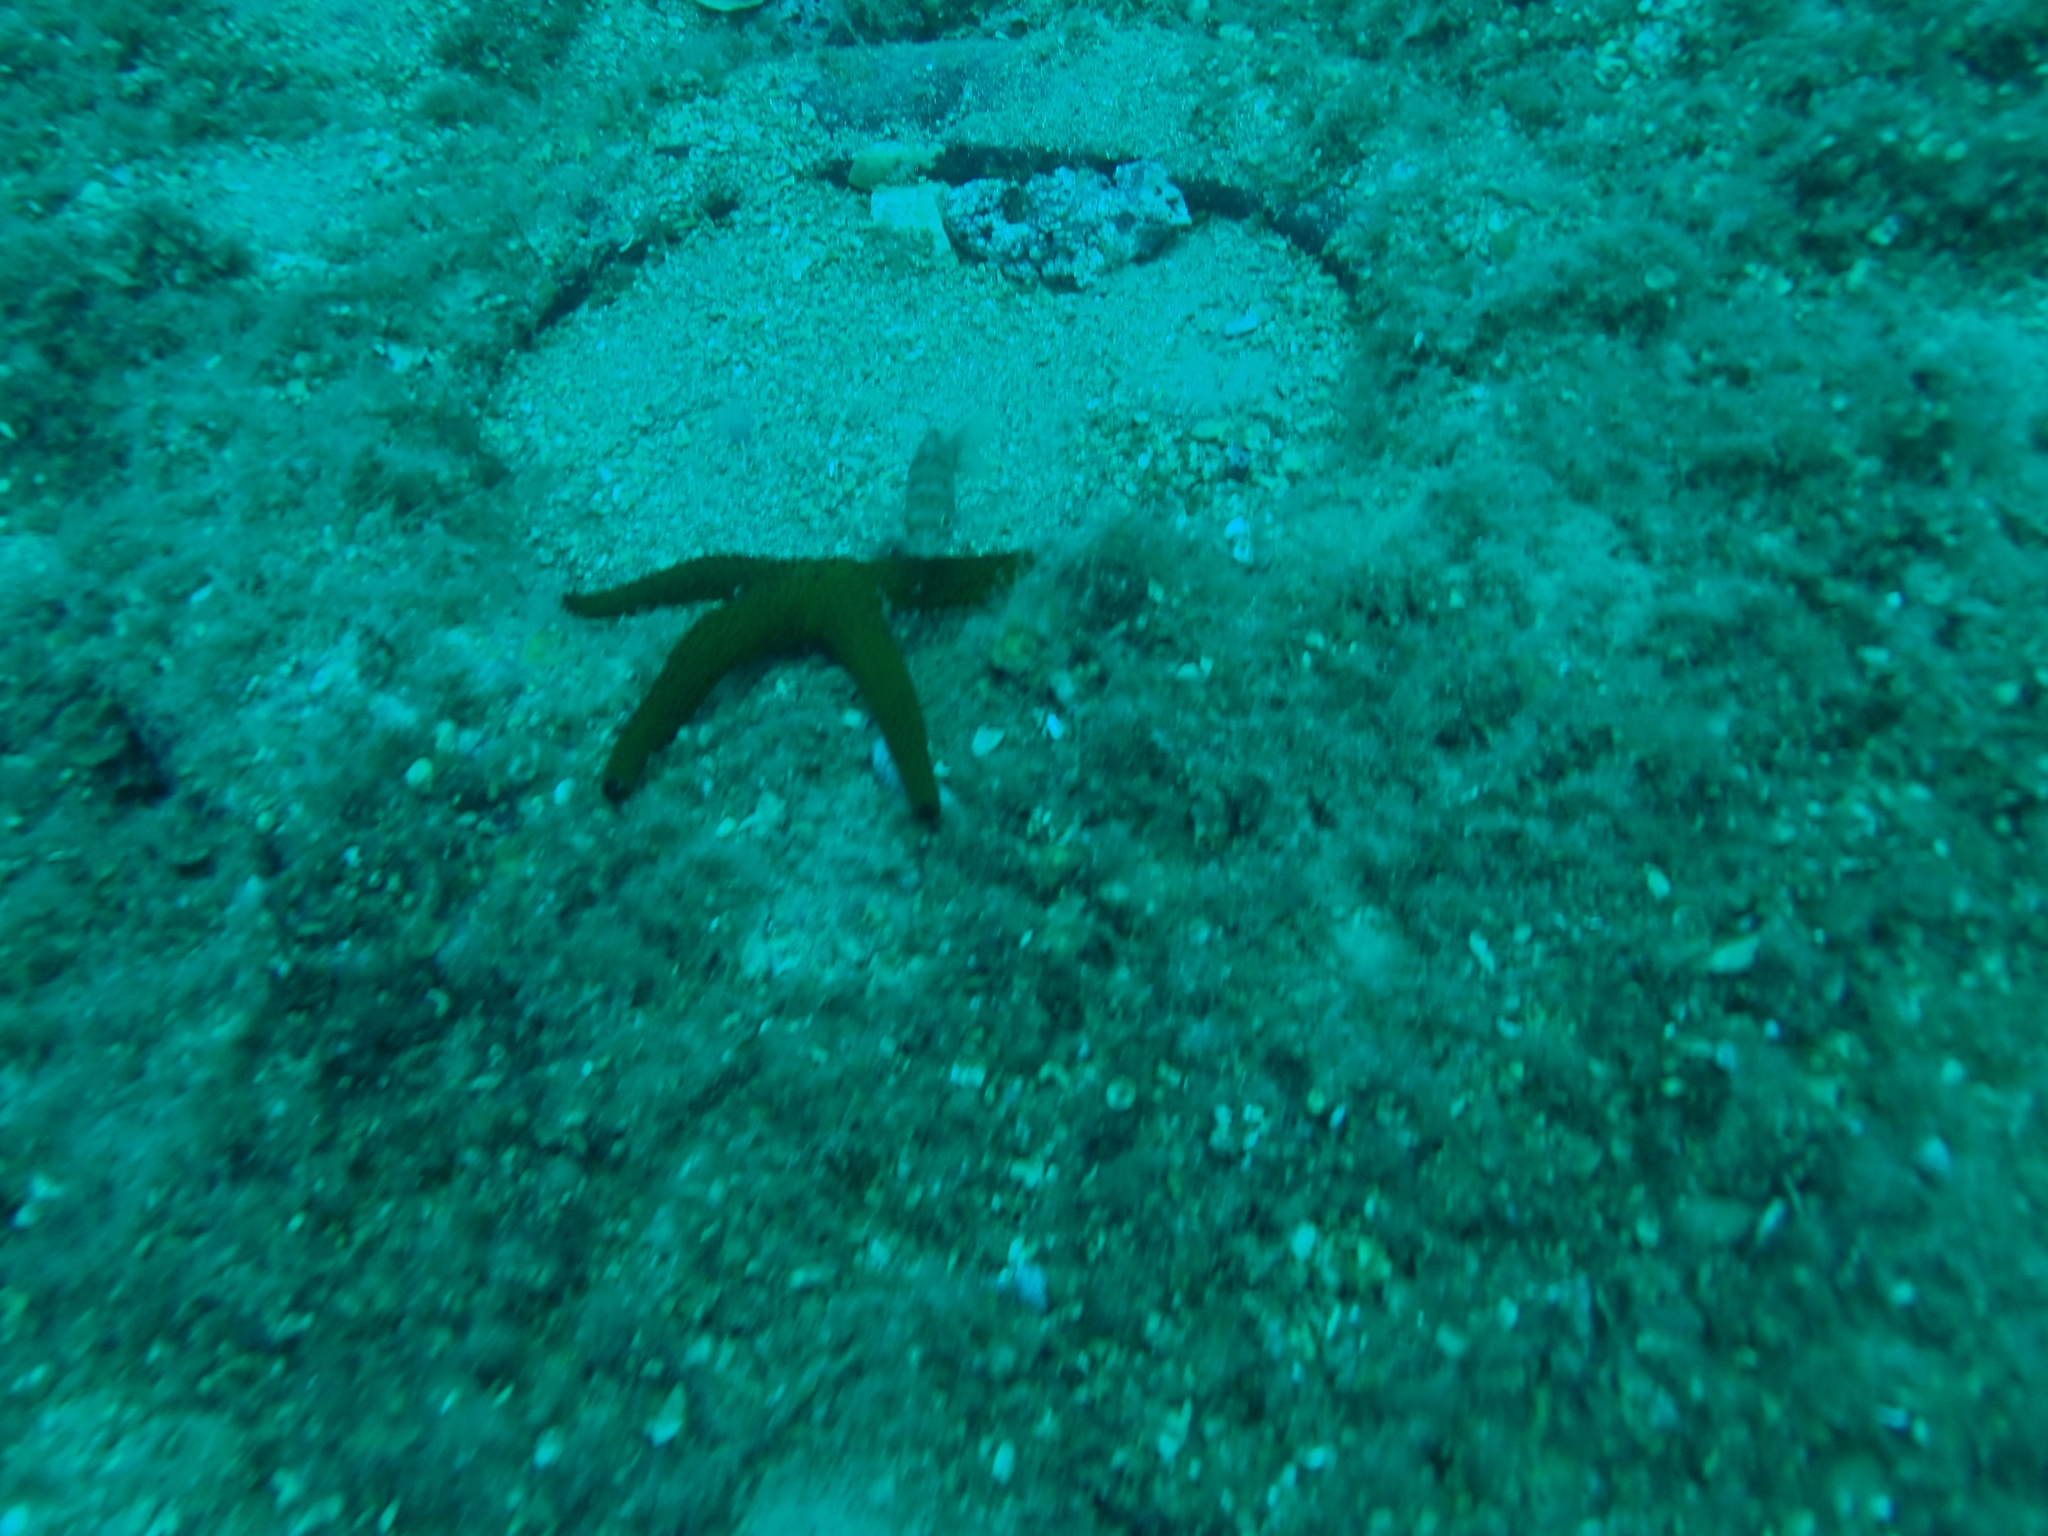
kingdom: Animalia
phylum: Echinodermata
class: Asteroidea
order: Spinulosida
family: Echinasteridae
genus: Echinaster
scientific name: Echinaster sepositus
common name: Red starfish
